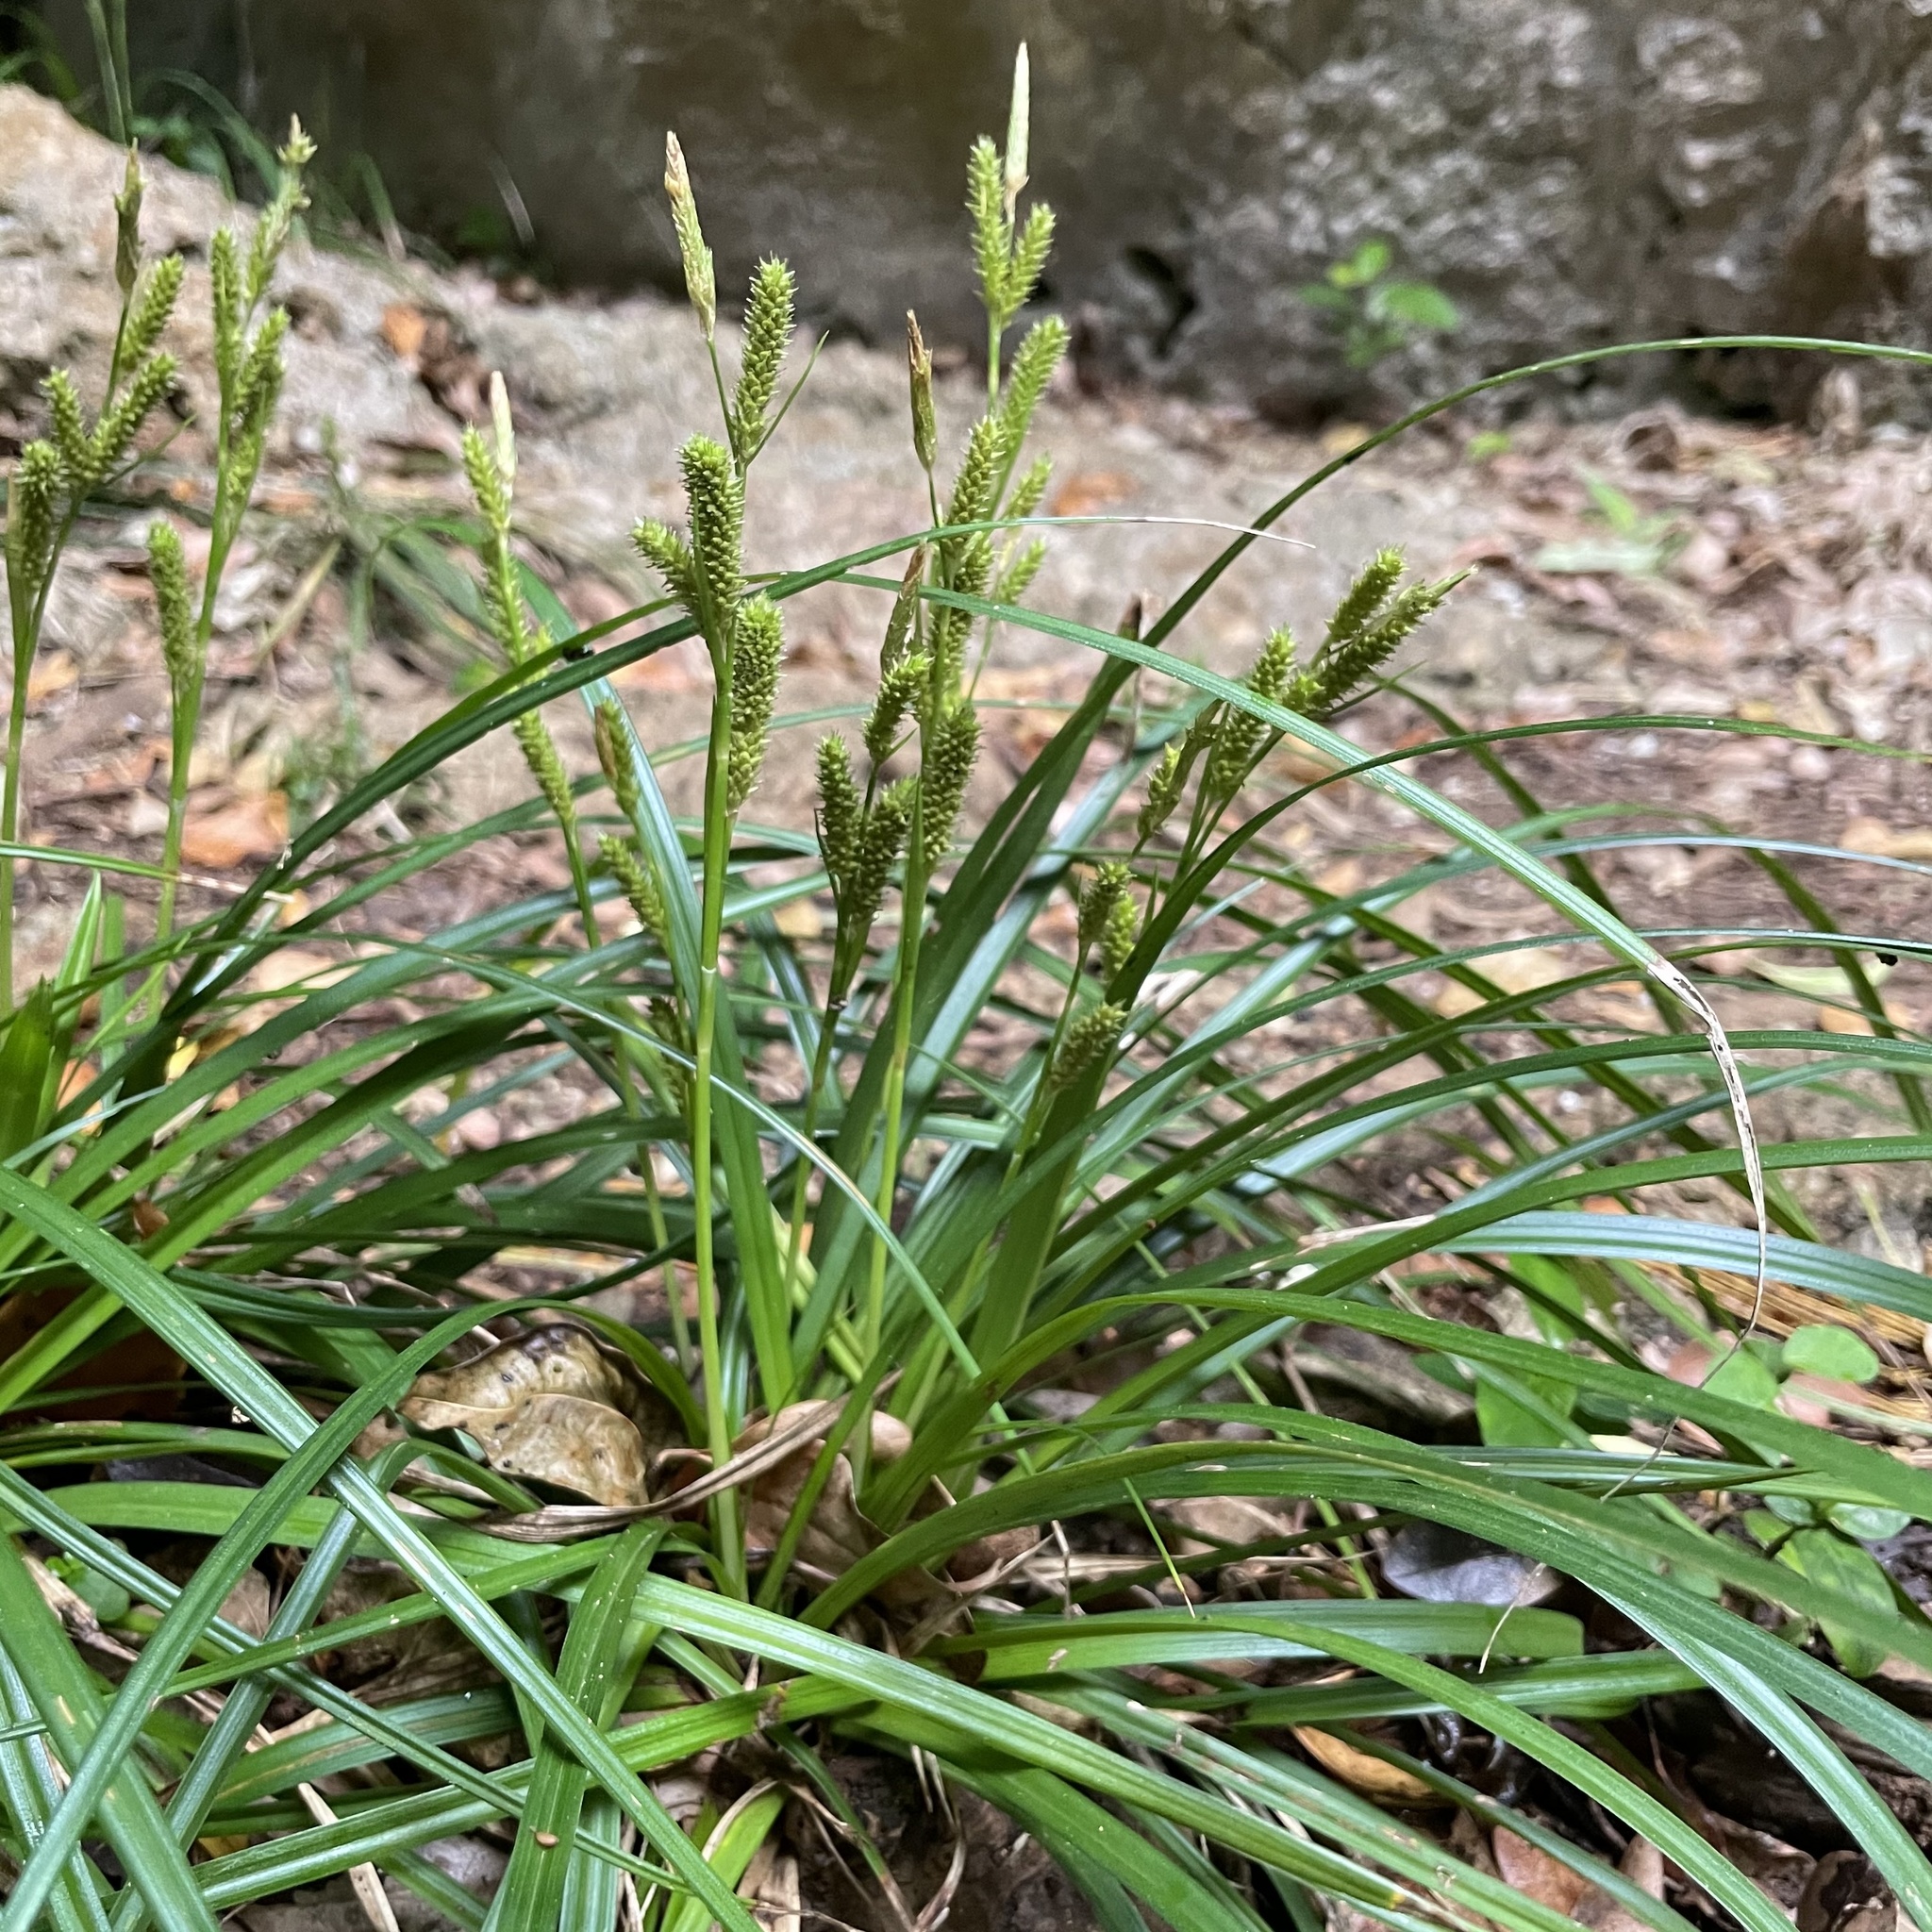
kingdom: Plantae
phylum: Tracheophyta
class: Liliopsida
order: Poales
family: Cyperaceae
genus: Carex
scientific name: Carex sociata
